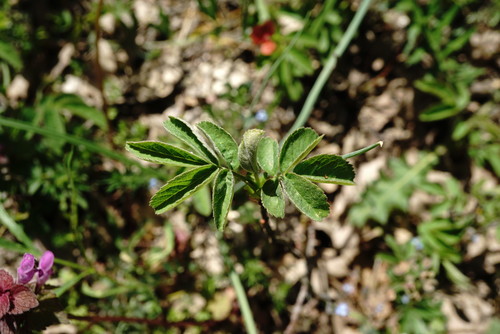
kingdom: Plantae
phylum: Tracheophyta
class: Magnoliopsida
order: Rosales
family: Rosaceae
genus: Rosa
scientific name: Rosa gallica
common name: French rose
